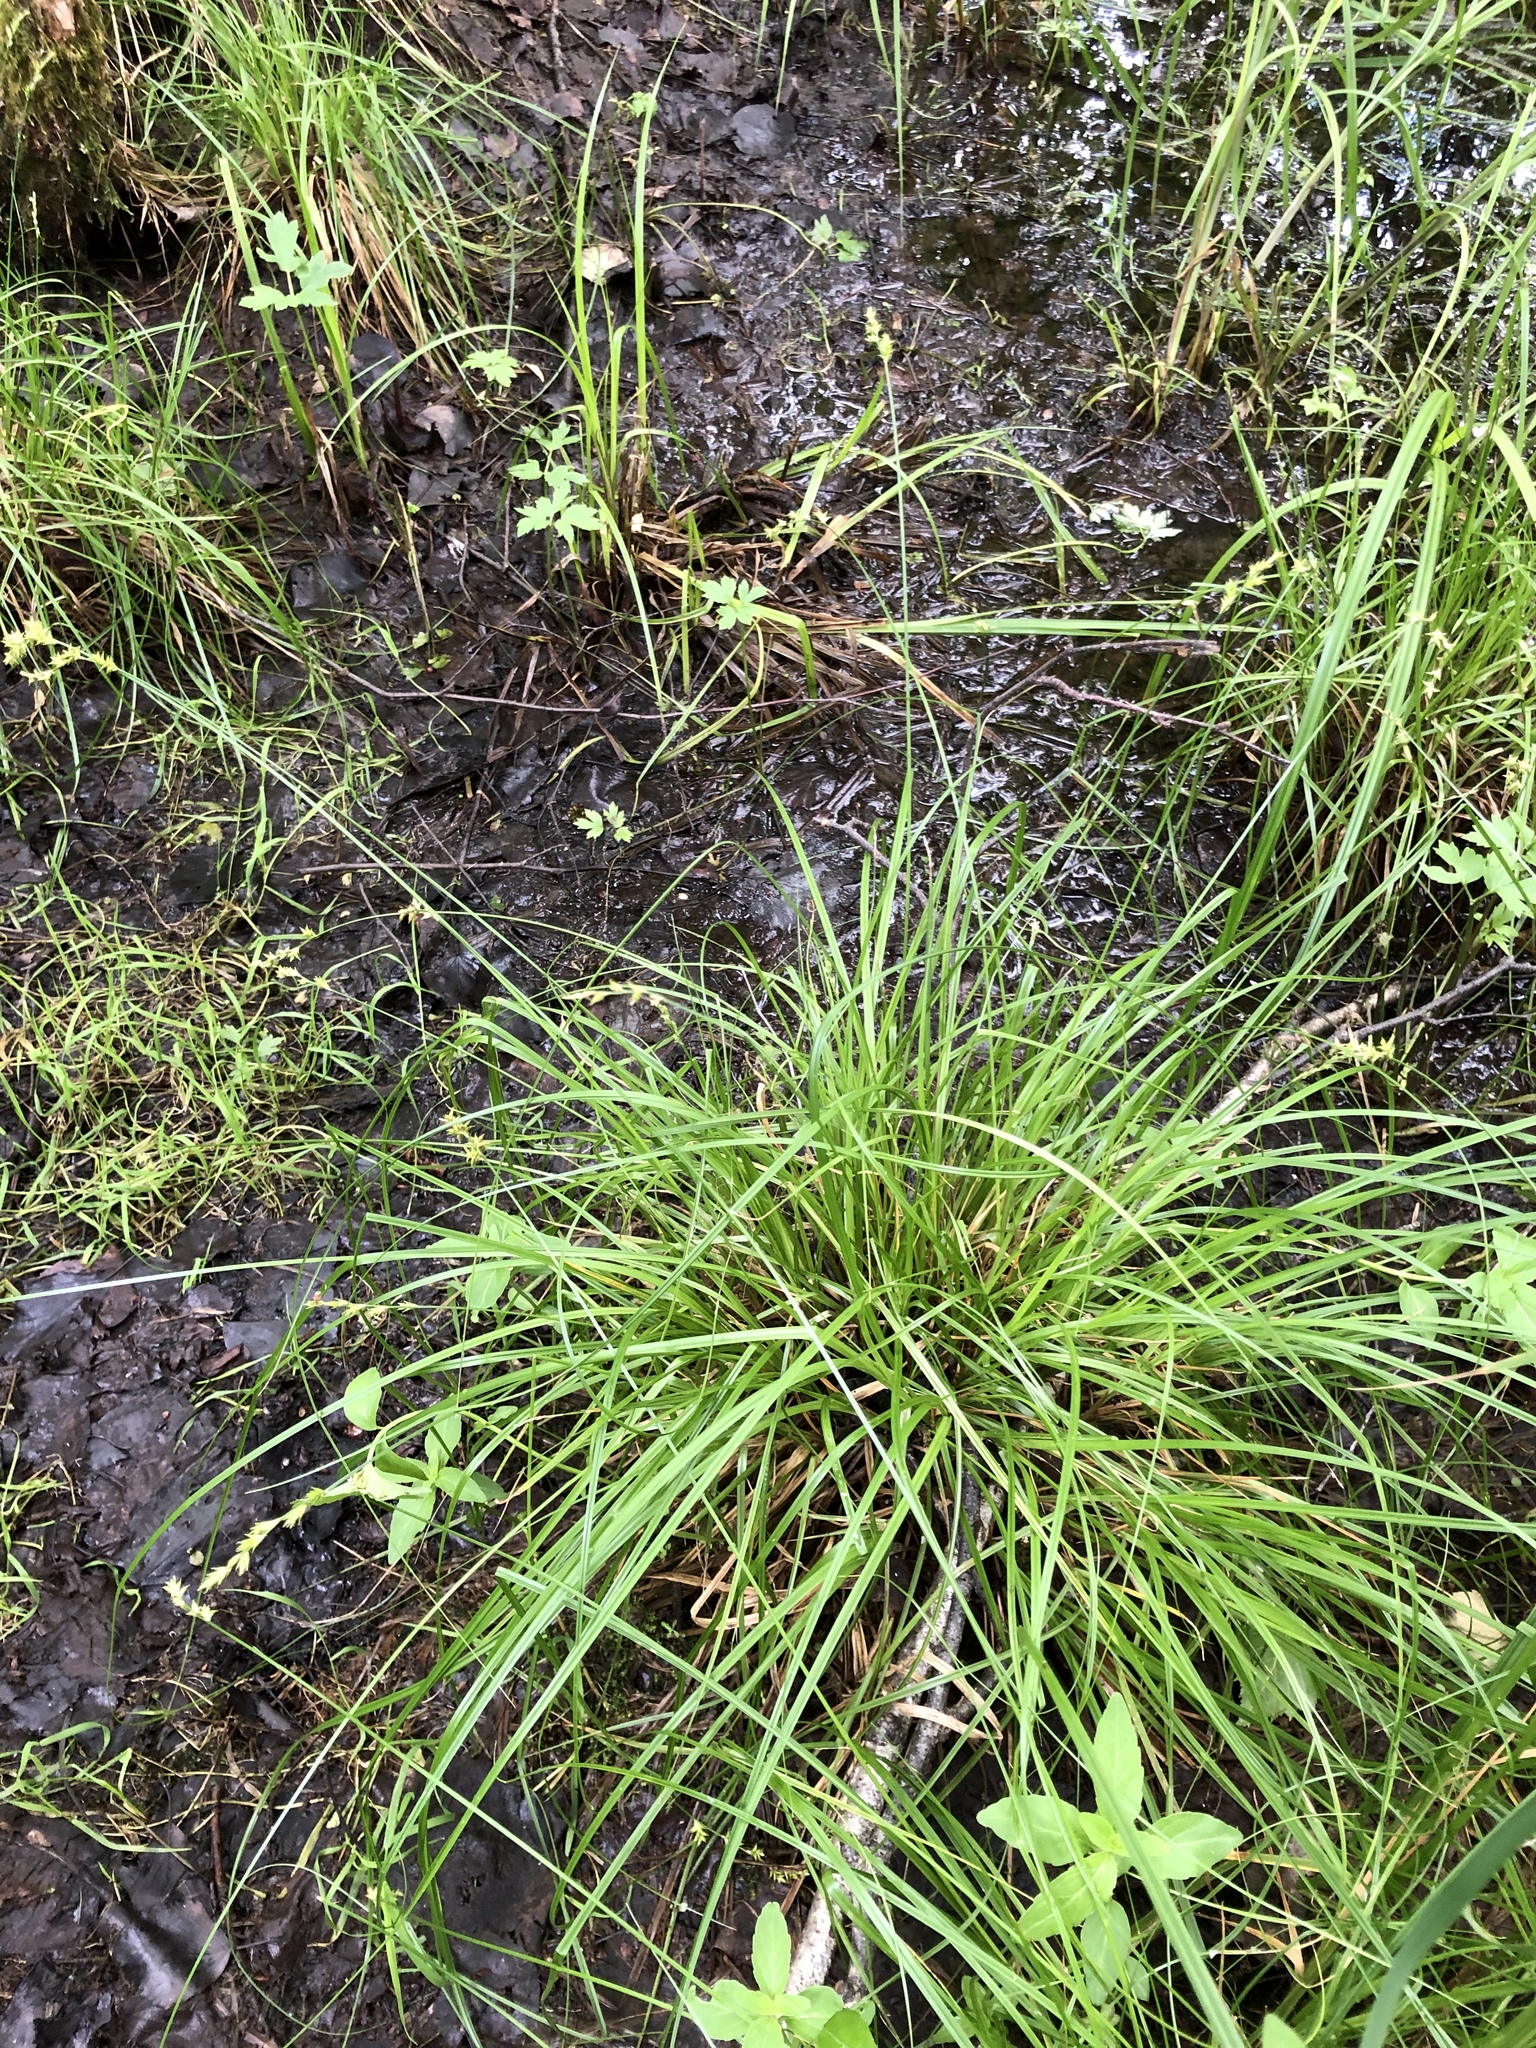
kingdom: Plantae
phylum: Tracheophyta
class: Liliopsida
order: Poales
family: Cyperaceae
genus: Carex
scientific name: Carex elongata
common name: Elongated sedge
